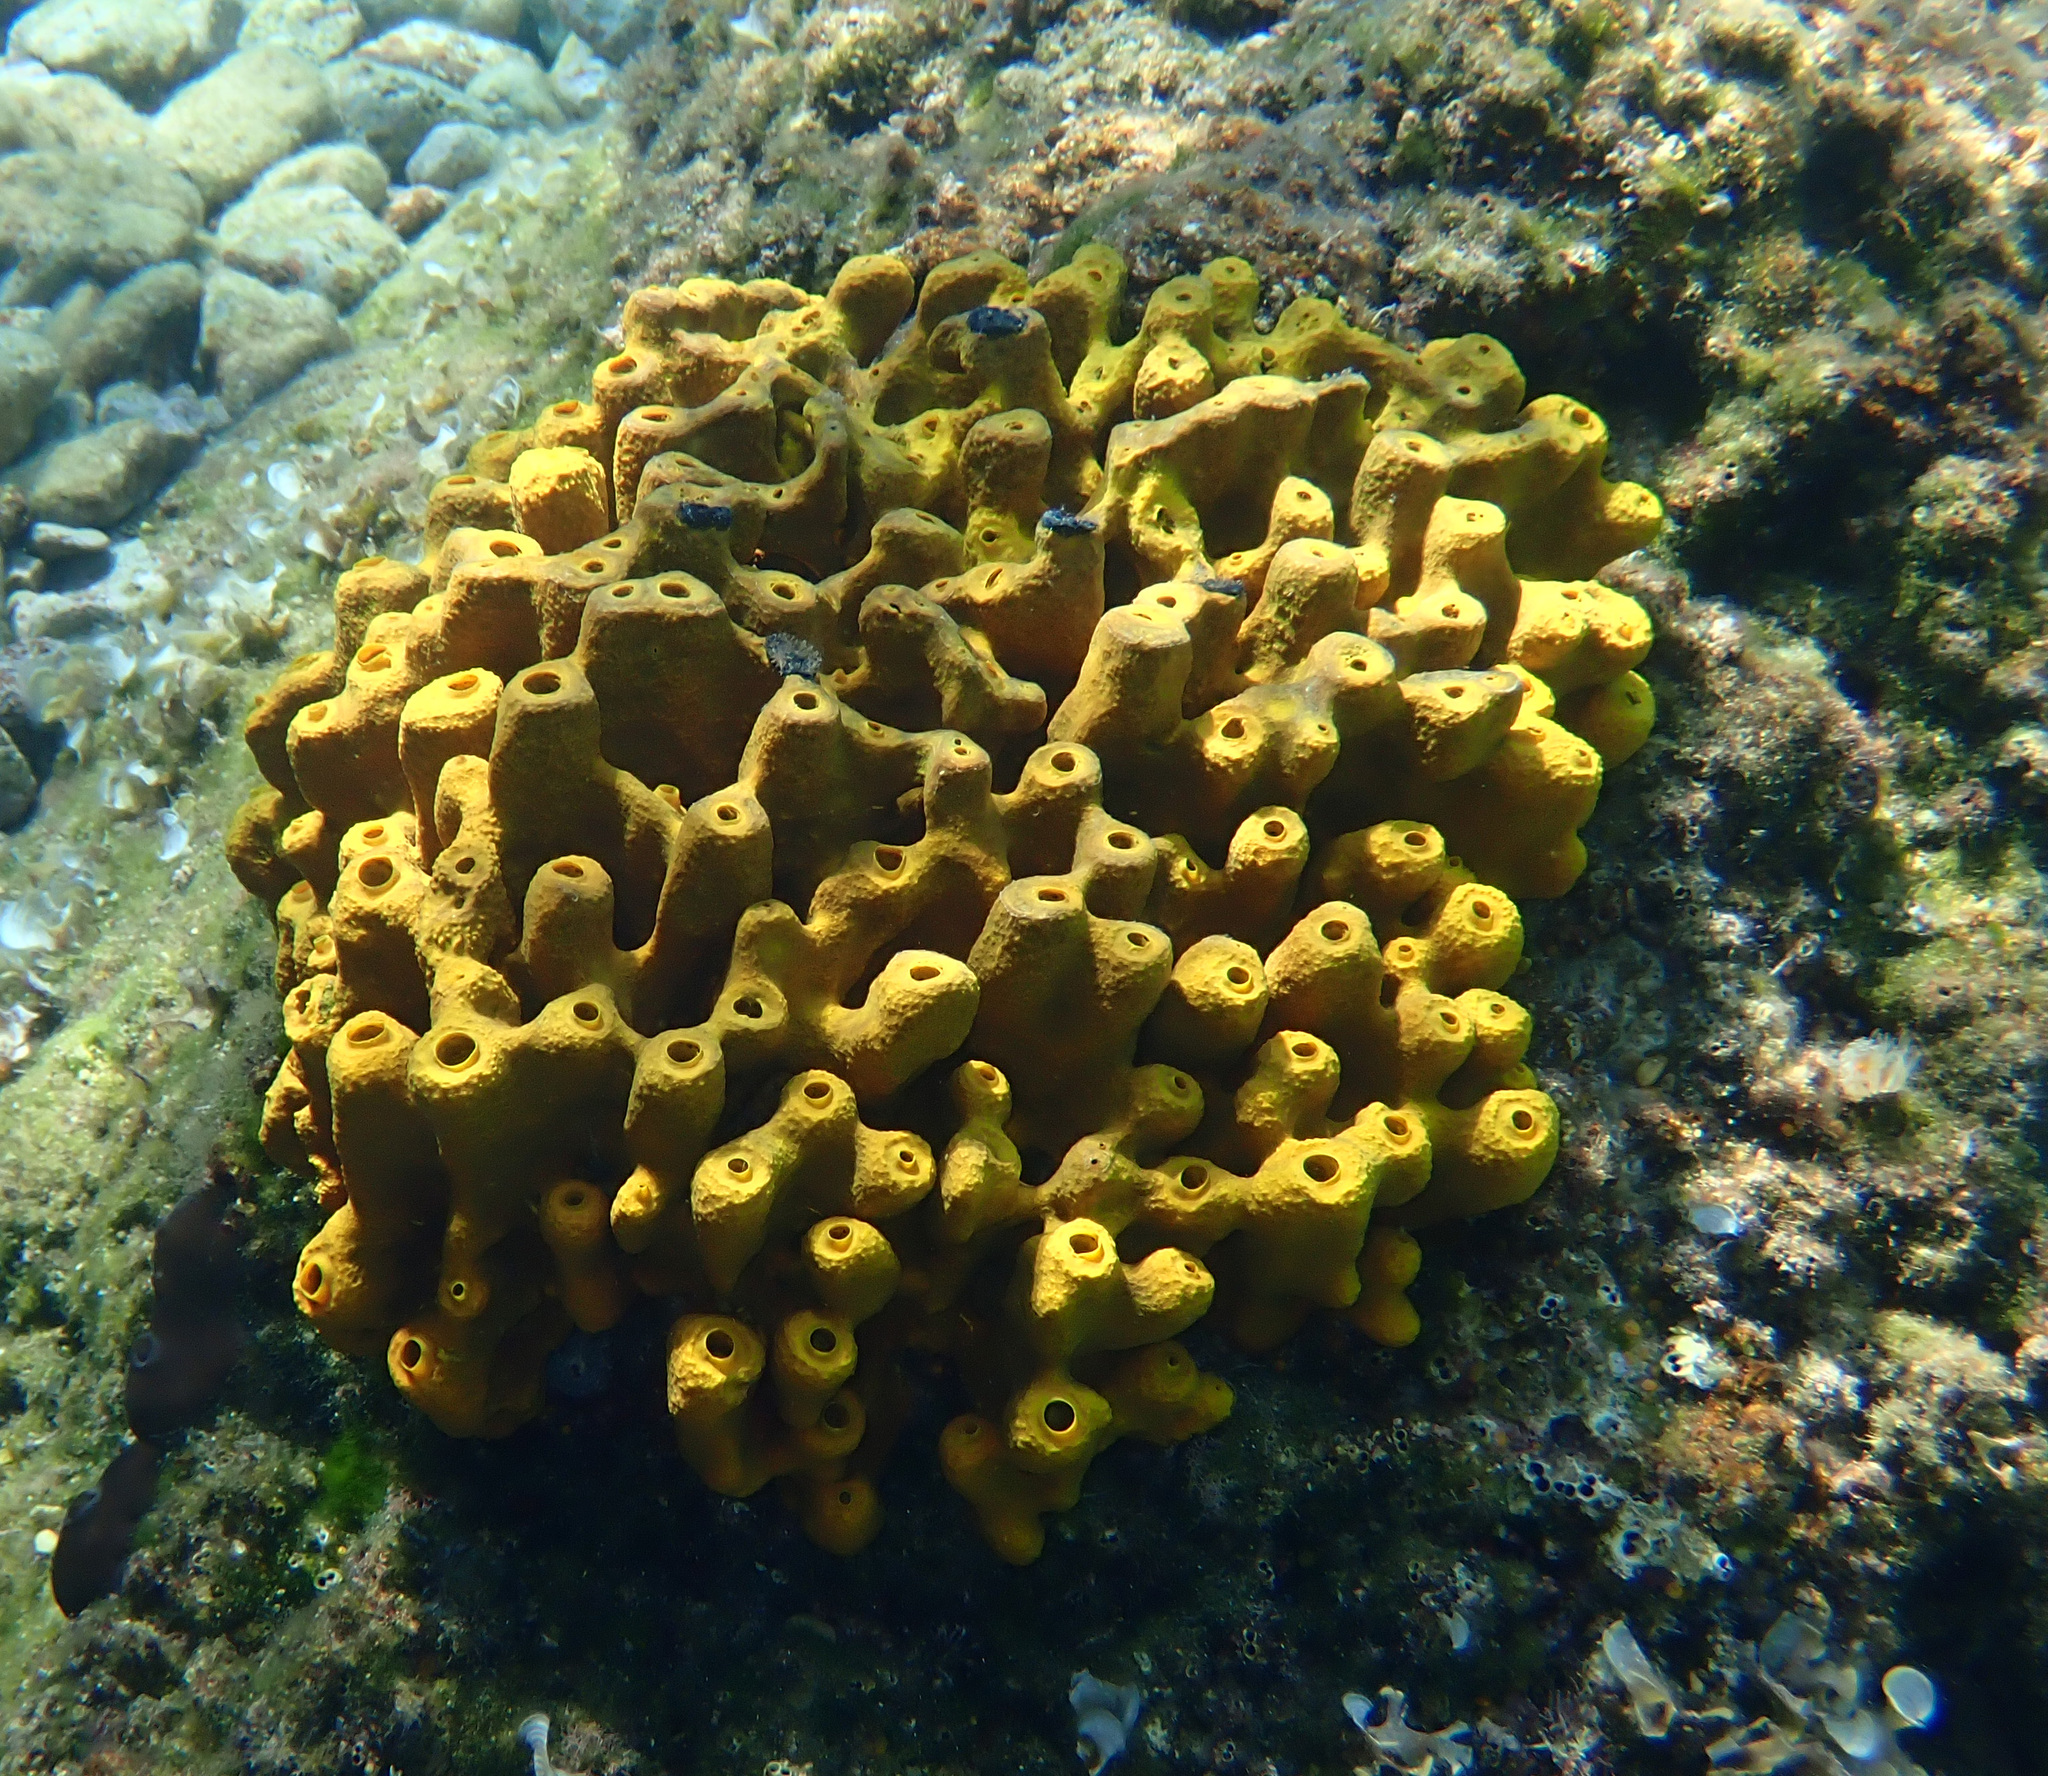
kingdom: Animalia
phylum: Porifera
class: Demospongiae
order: Verongiida
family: Aplysinidae
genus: Aplysina
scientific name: Aplysina aerophoba
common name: Aureate sponge
